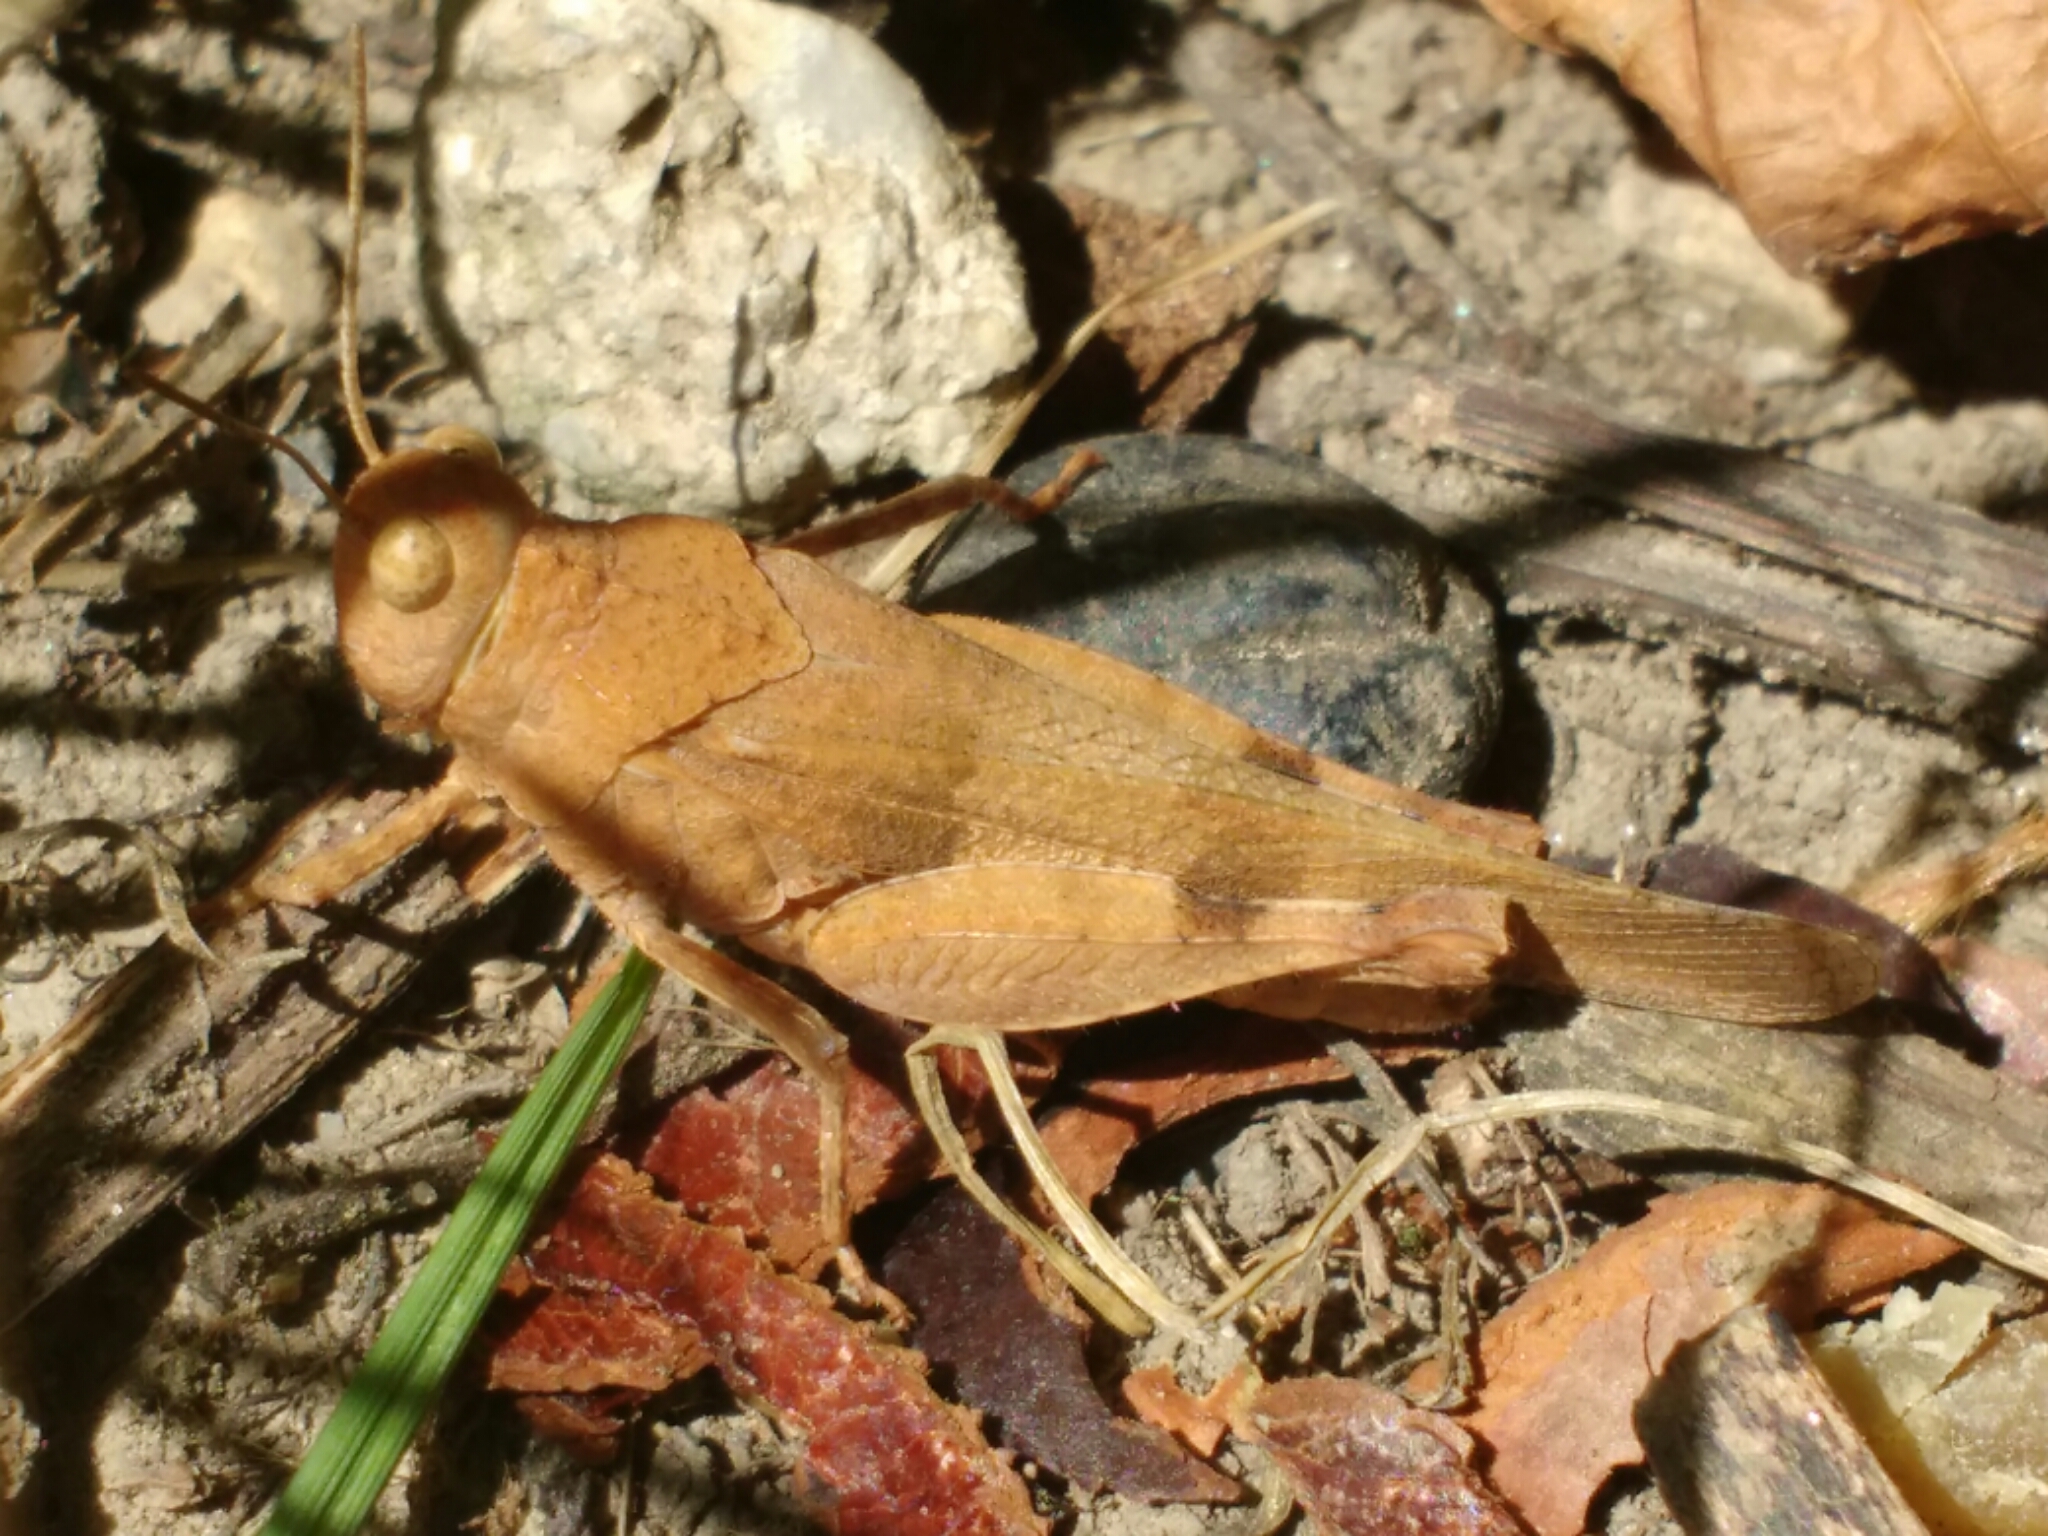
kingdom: Animalia
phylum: Arthropoda
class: Insecta
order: Orthoptera
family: Acrididae
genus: Oedipoda
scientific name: Oedipoda caerulescens
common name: Blue-winged grasshopper
